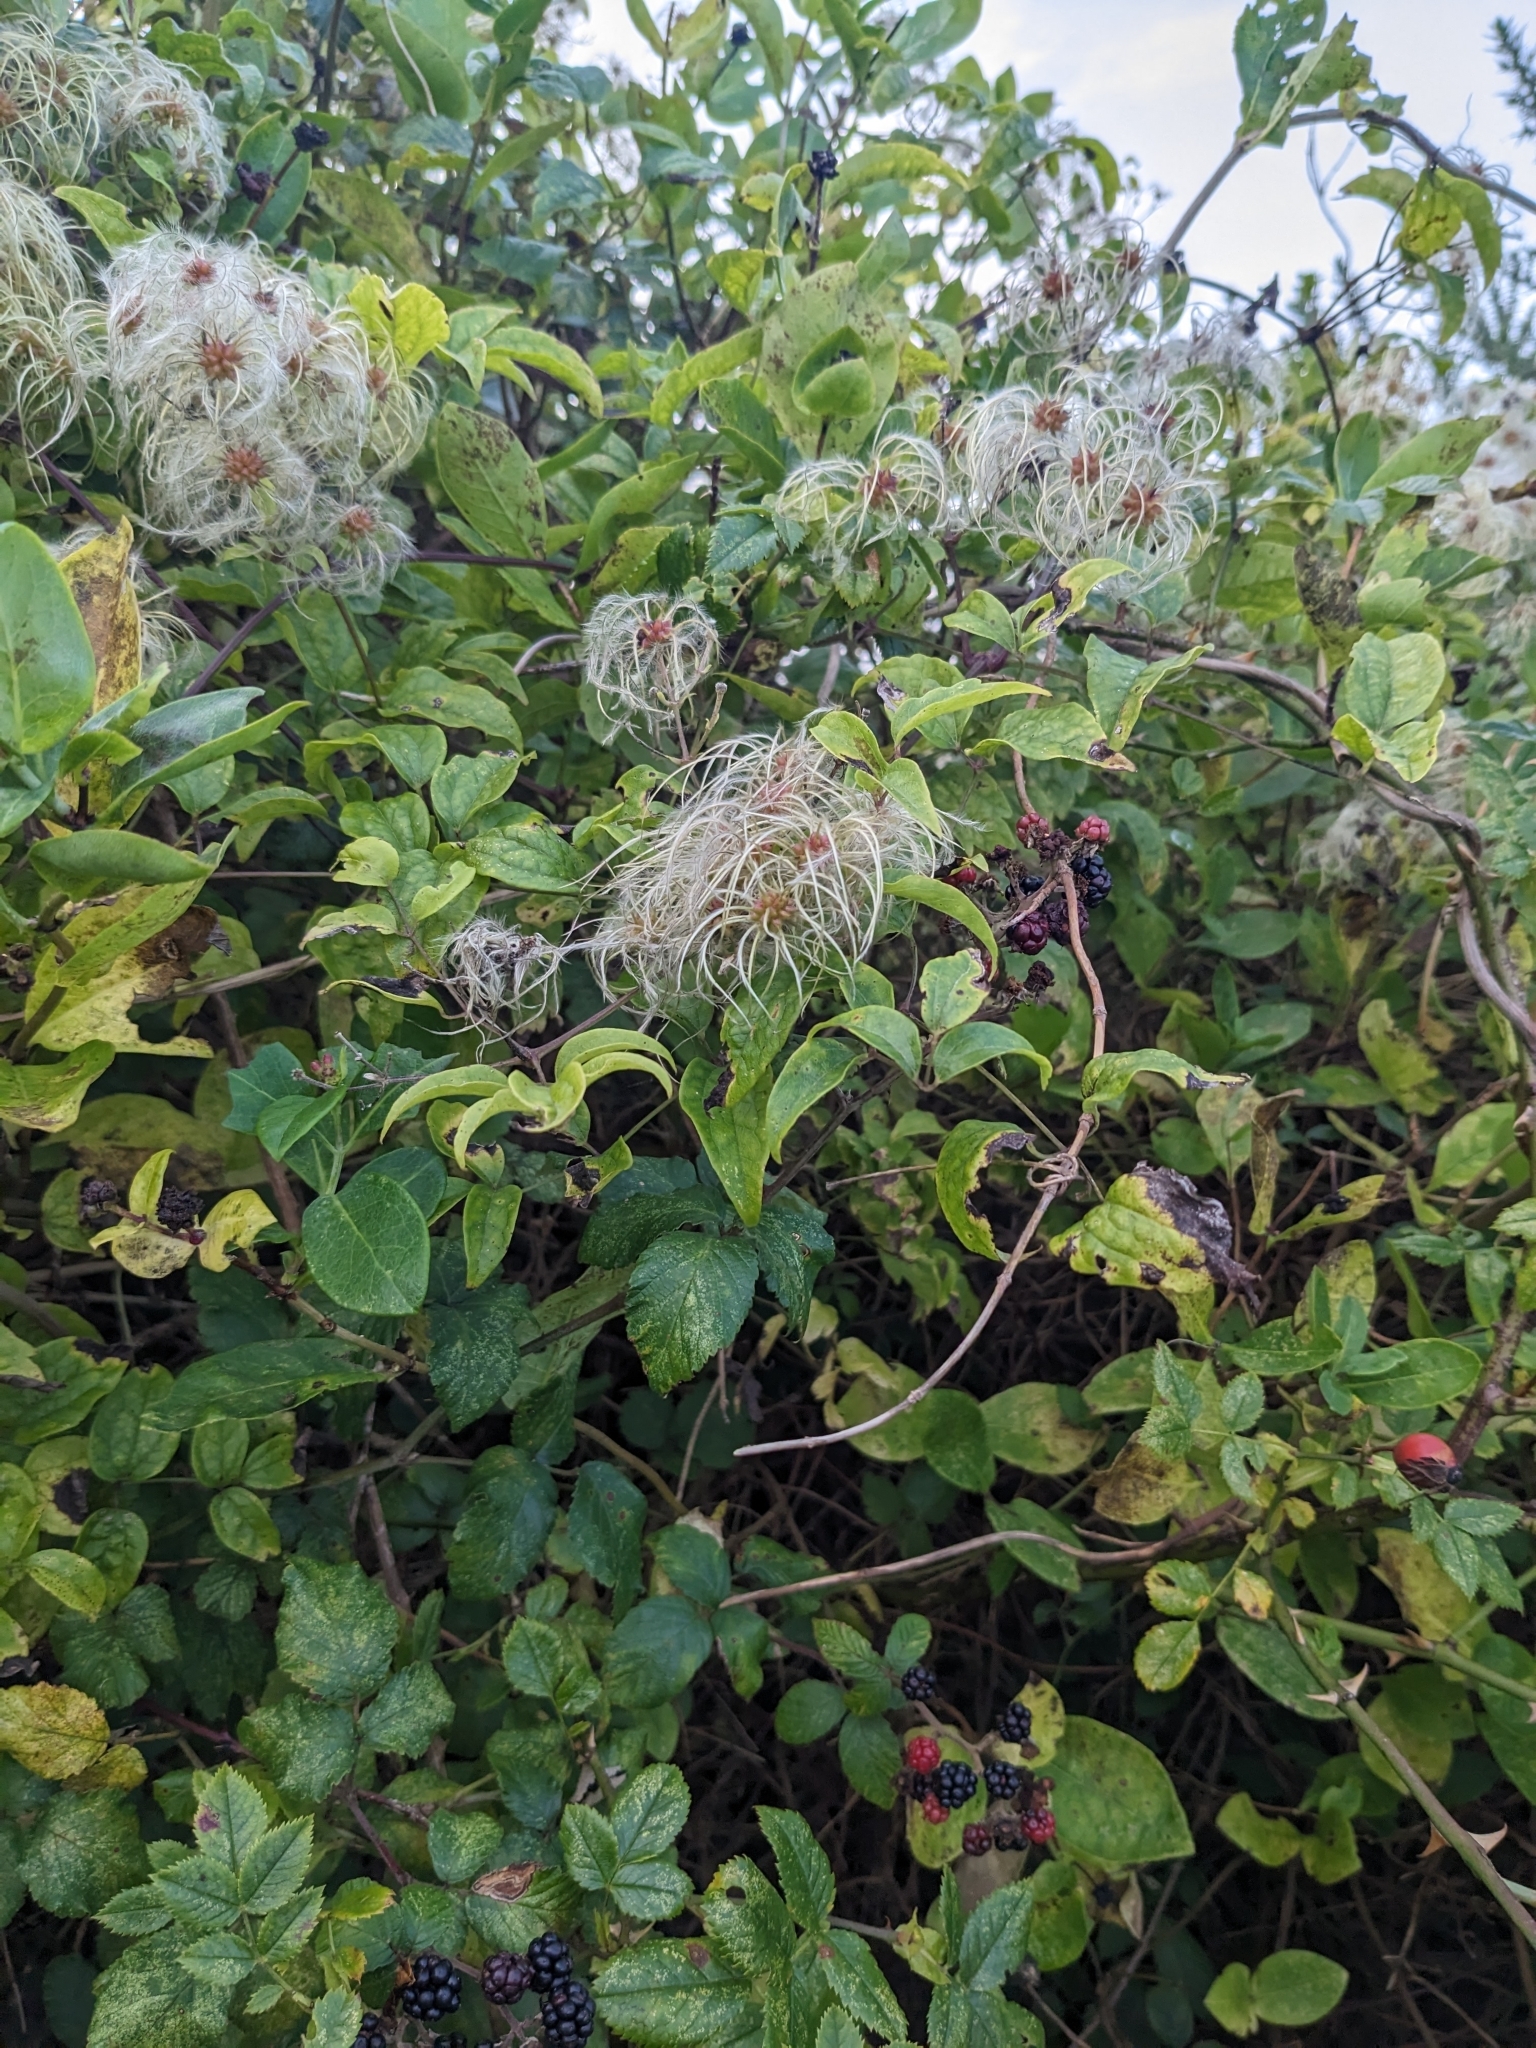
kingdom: Plantae
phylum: Tracheophyta
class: Magnoliopsida
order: Ranunculales
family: Ranunculaceae
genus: Clematis
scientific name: Clematis vitalba
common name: Evergreen clematis
